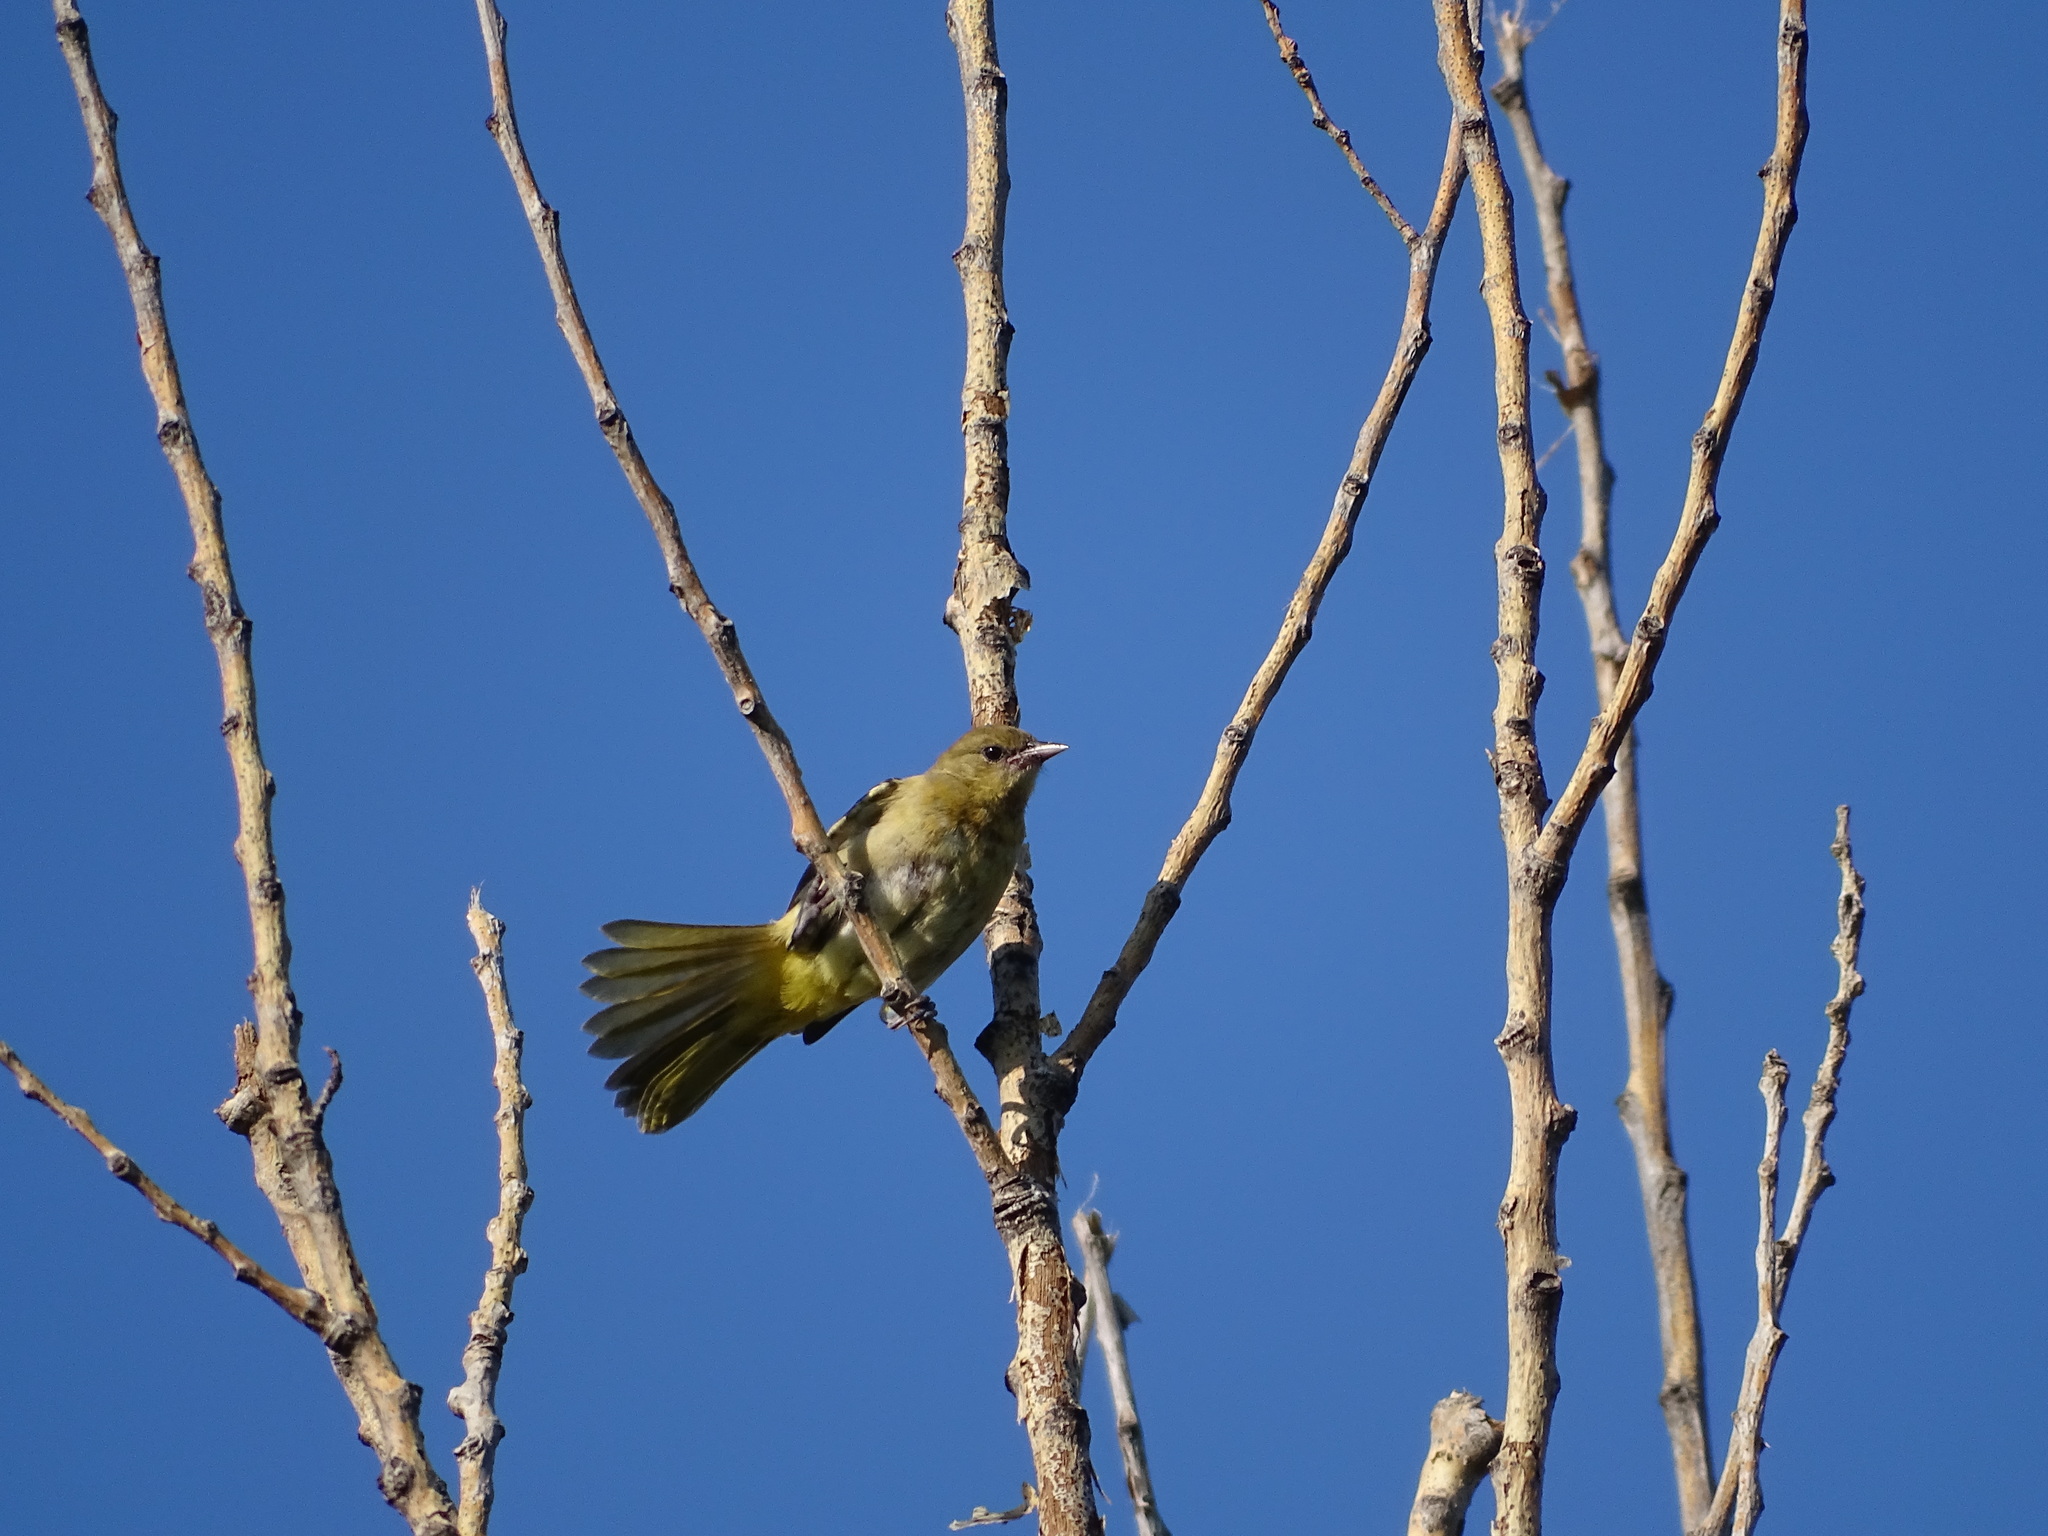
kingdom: Animalia
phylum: Chordata
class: Aves
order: Passeriformes
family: Icteridae
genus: Icterus
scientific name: Icterus spurius
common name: Orchard oriole
